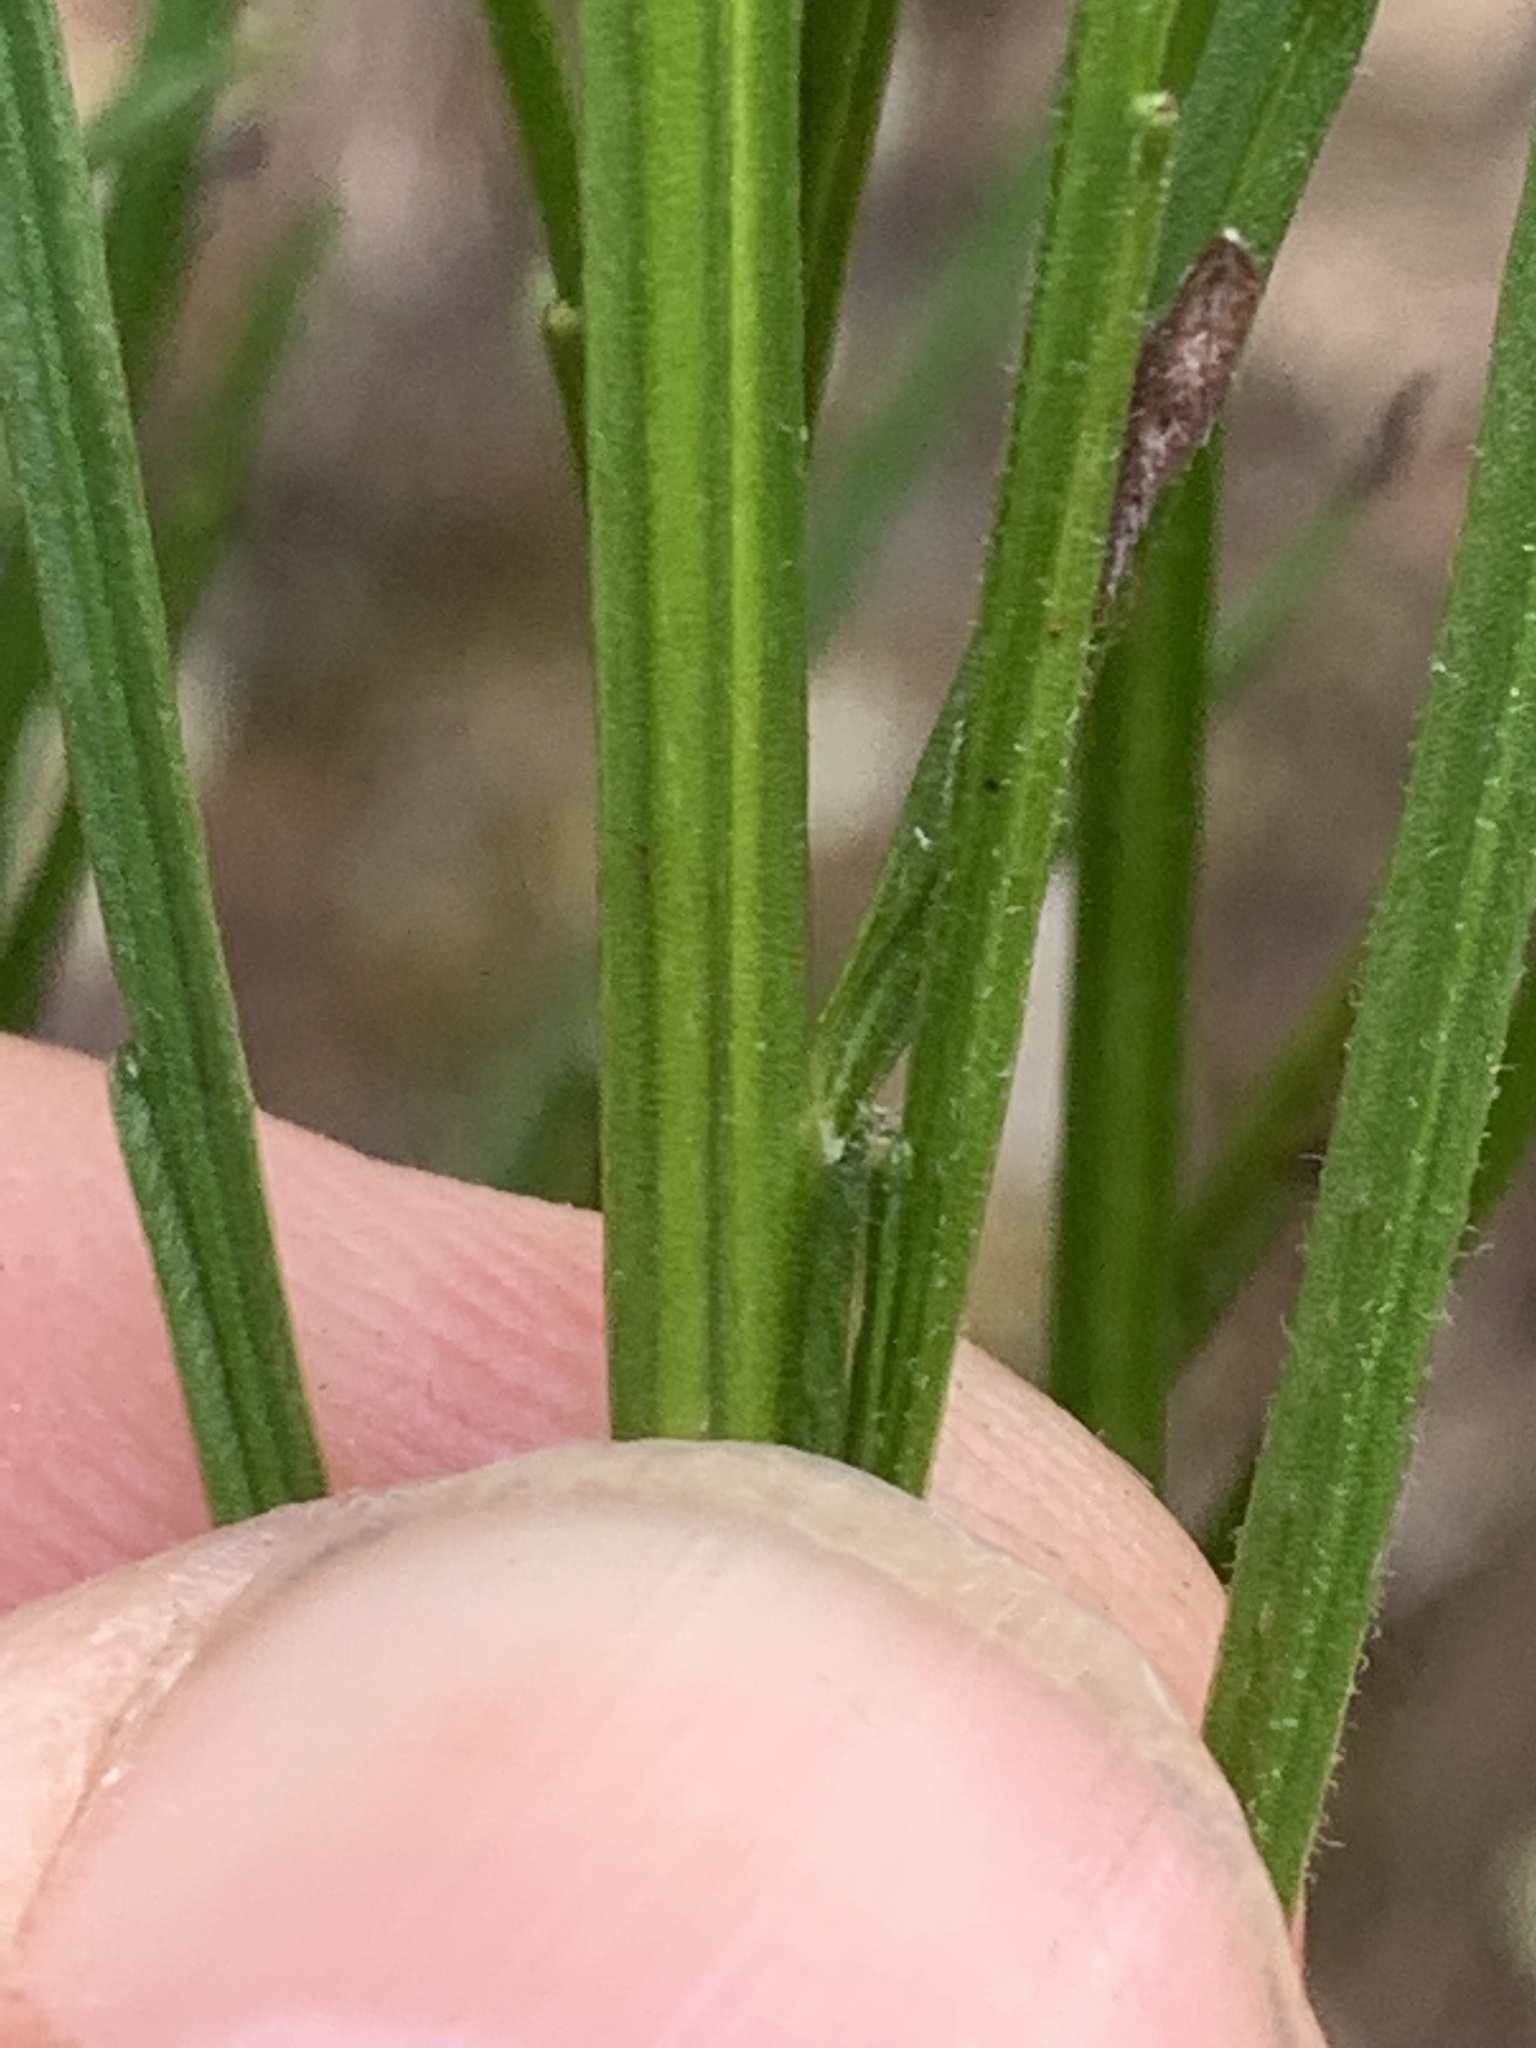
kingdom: Plantae
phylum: Tracheophyta
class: Magnoliopsida
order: Fabales
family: Fabaceae
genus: Cytisus
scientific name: Cytisus scoparius
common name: Scotch broom
